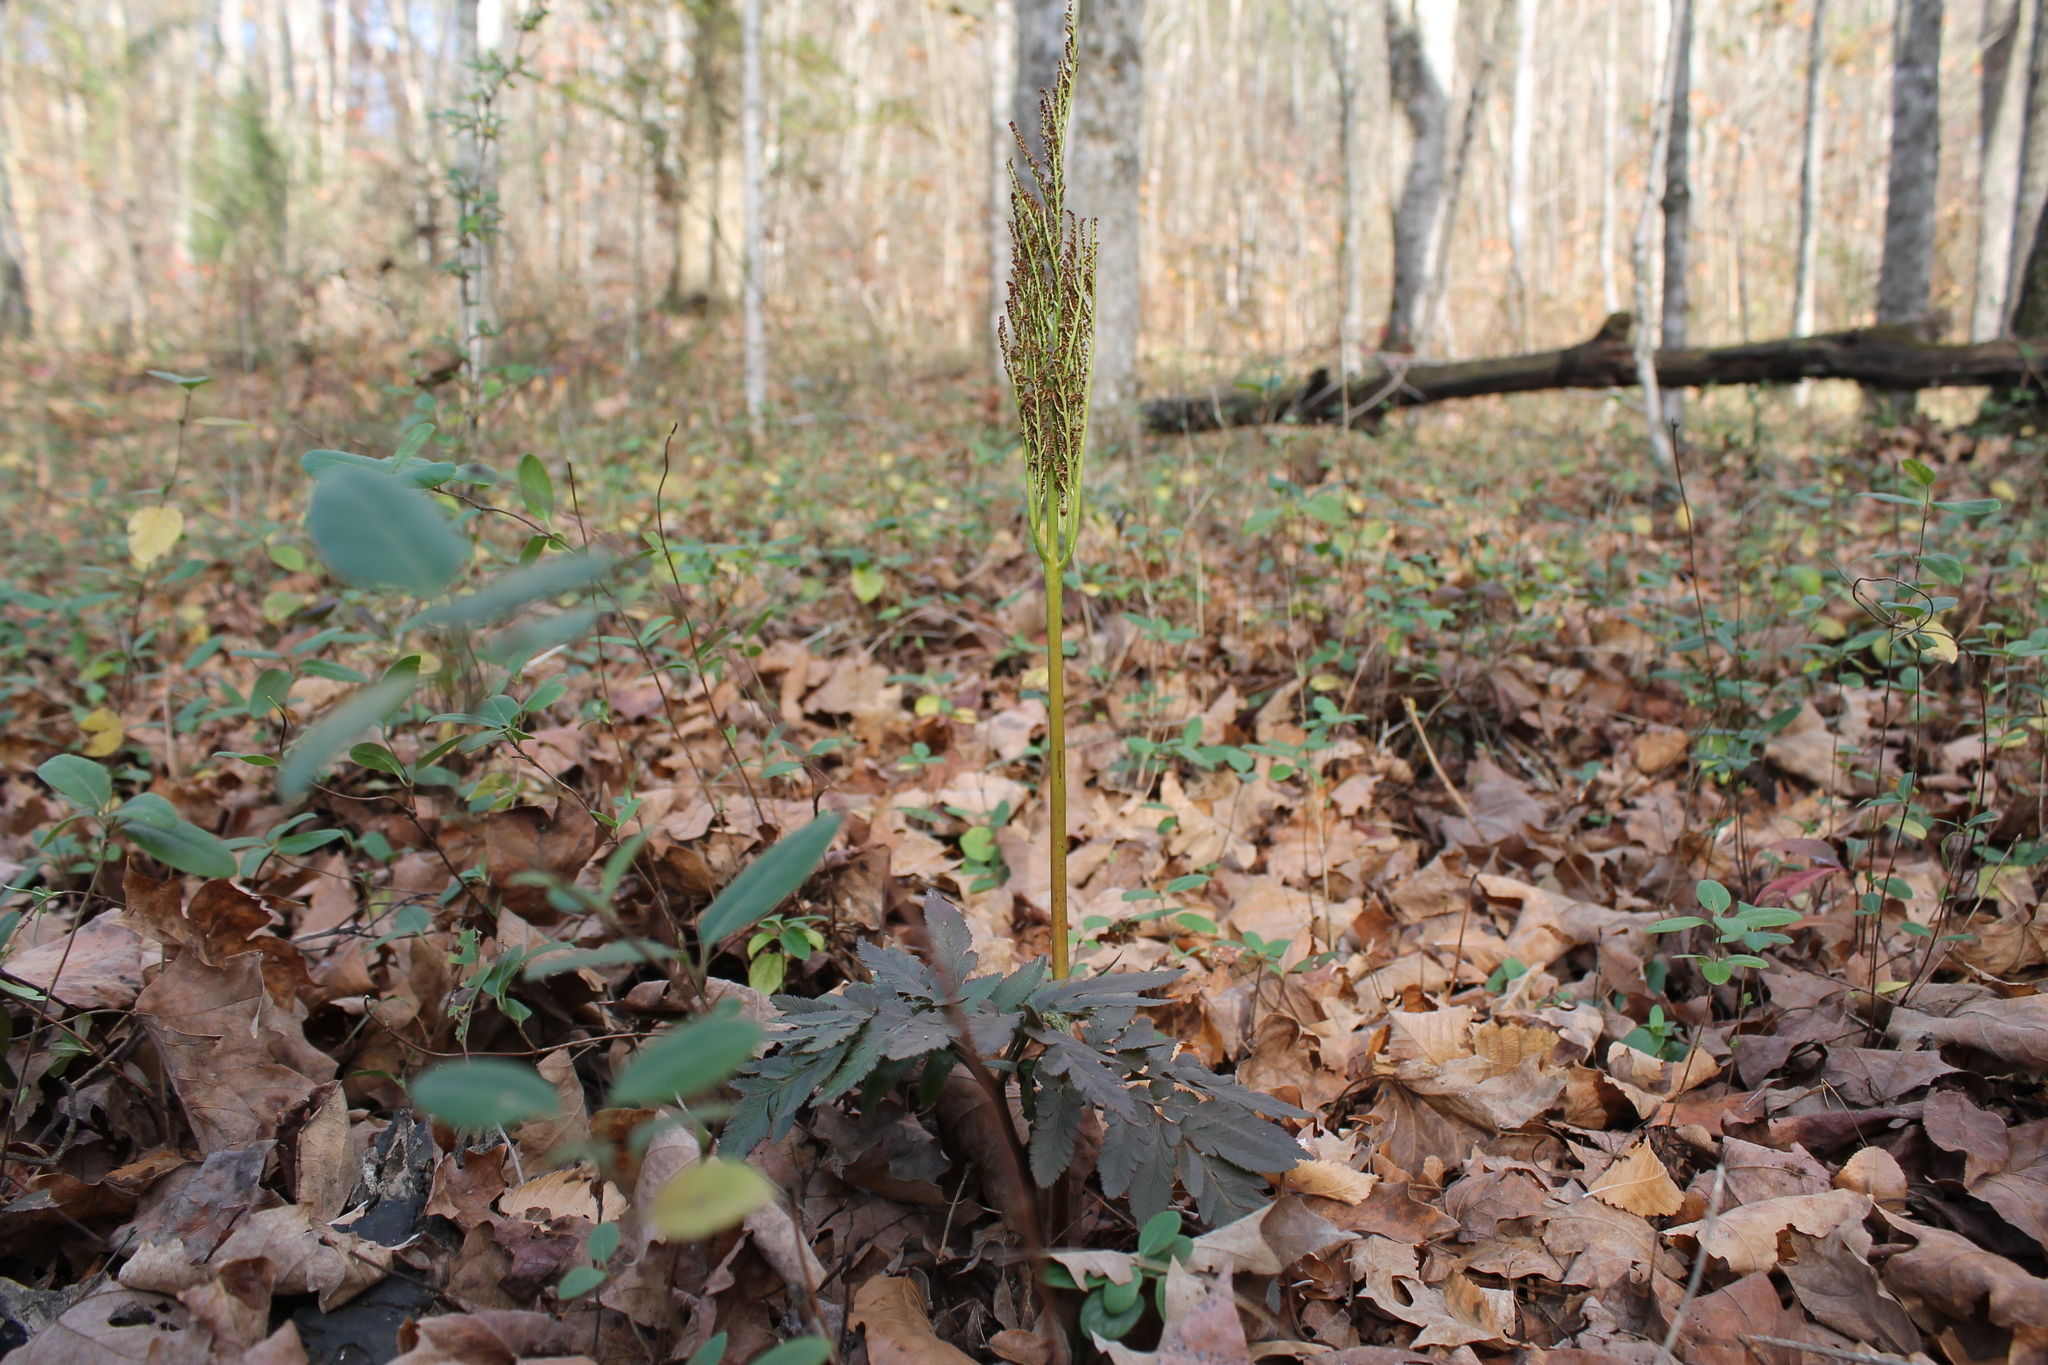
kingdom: Plantae
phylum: Tracheophyta
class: Polypodiopsida
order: Ophioglossales
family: Ophioglossaceae
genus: Sceptridium
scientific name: Sceptridium dissectum
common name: Cut-leaved grapefern
